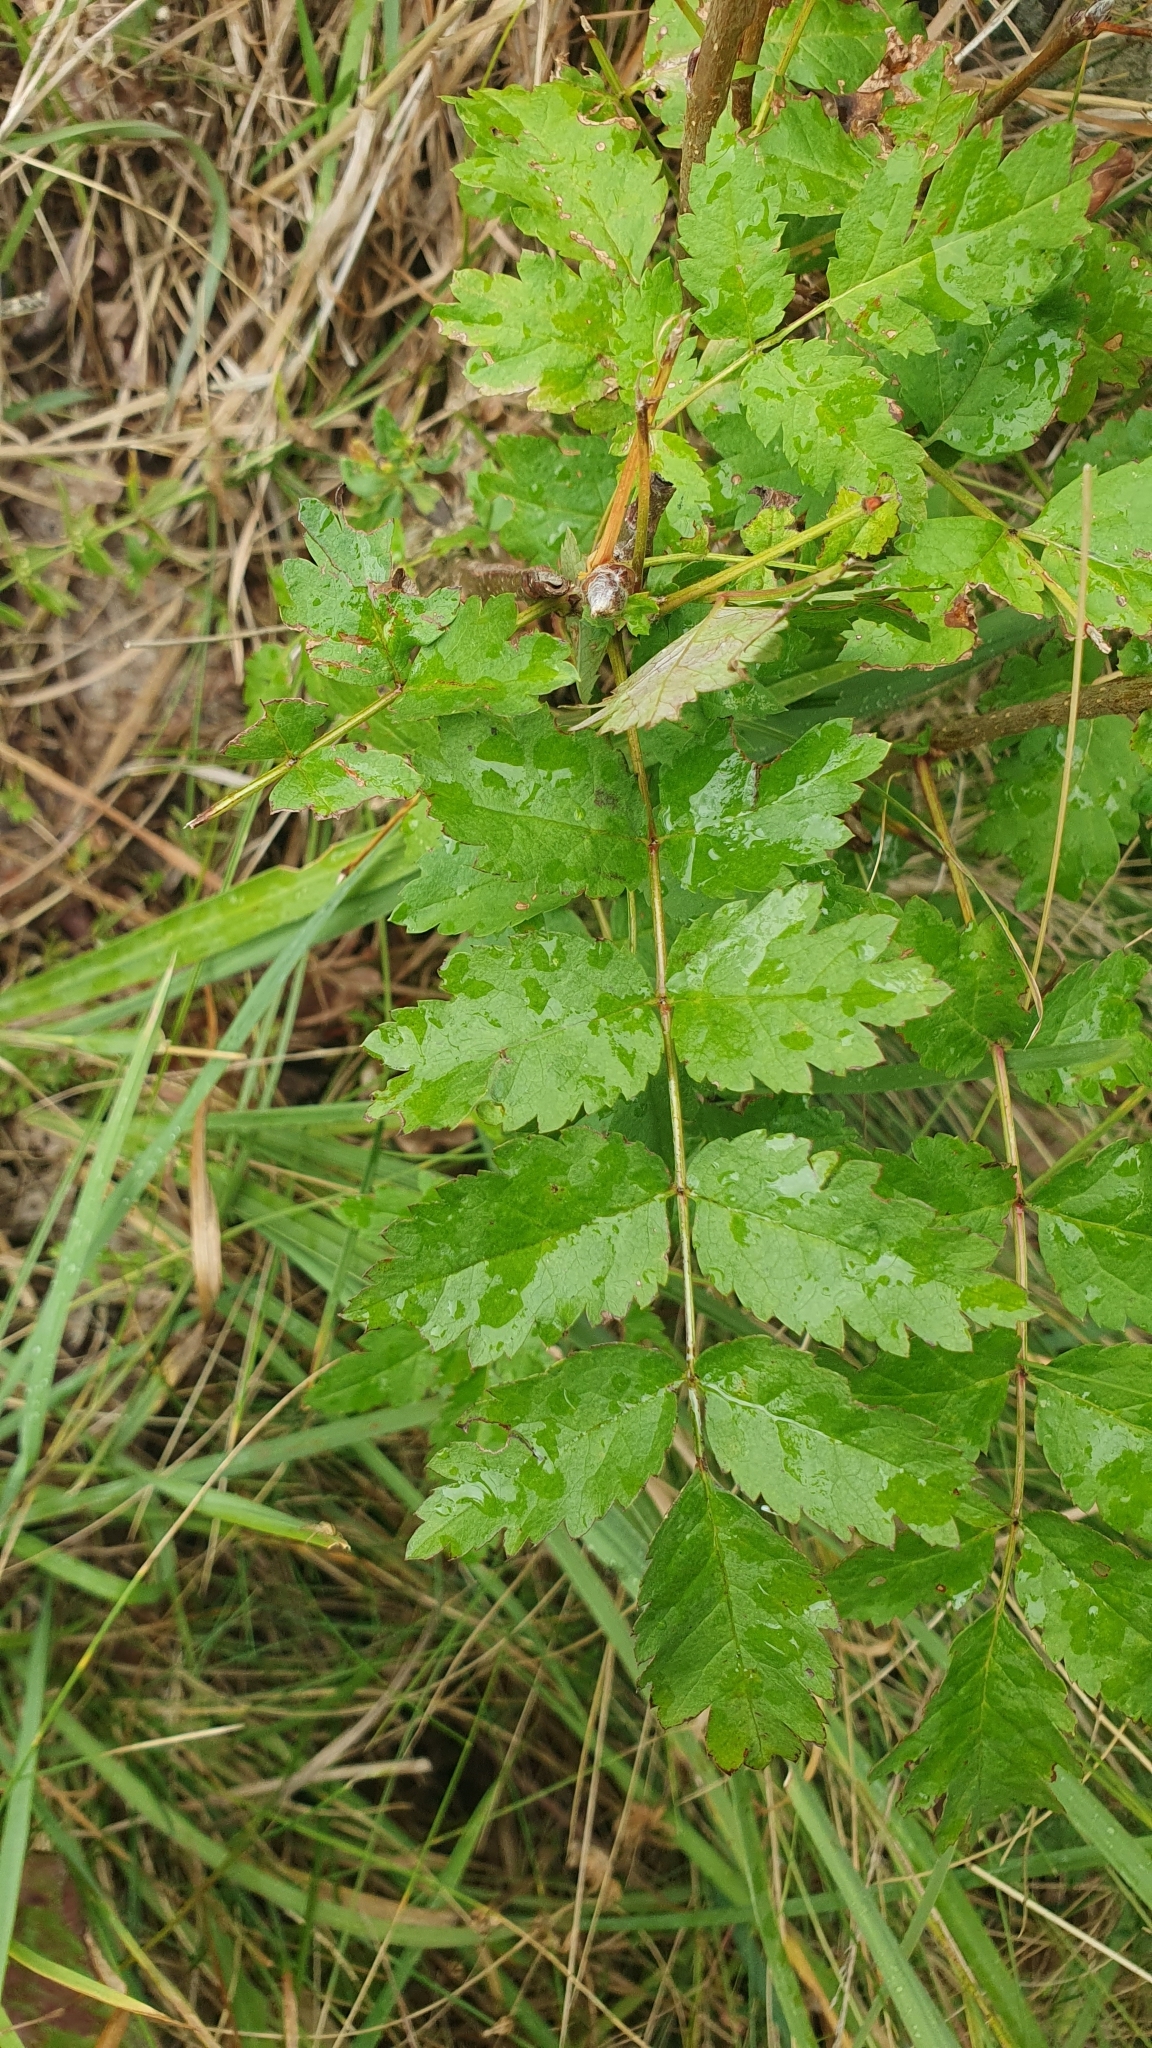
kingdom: Plantae
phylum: Tracheophyta
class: Magnoliopsida
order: Rosales
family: Rosaceae
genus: Sorbus
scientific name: Sorbus aucuparia
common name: Rowan
